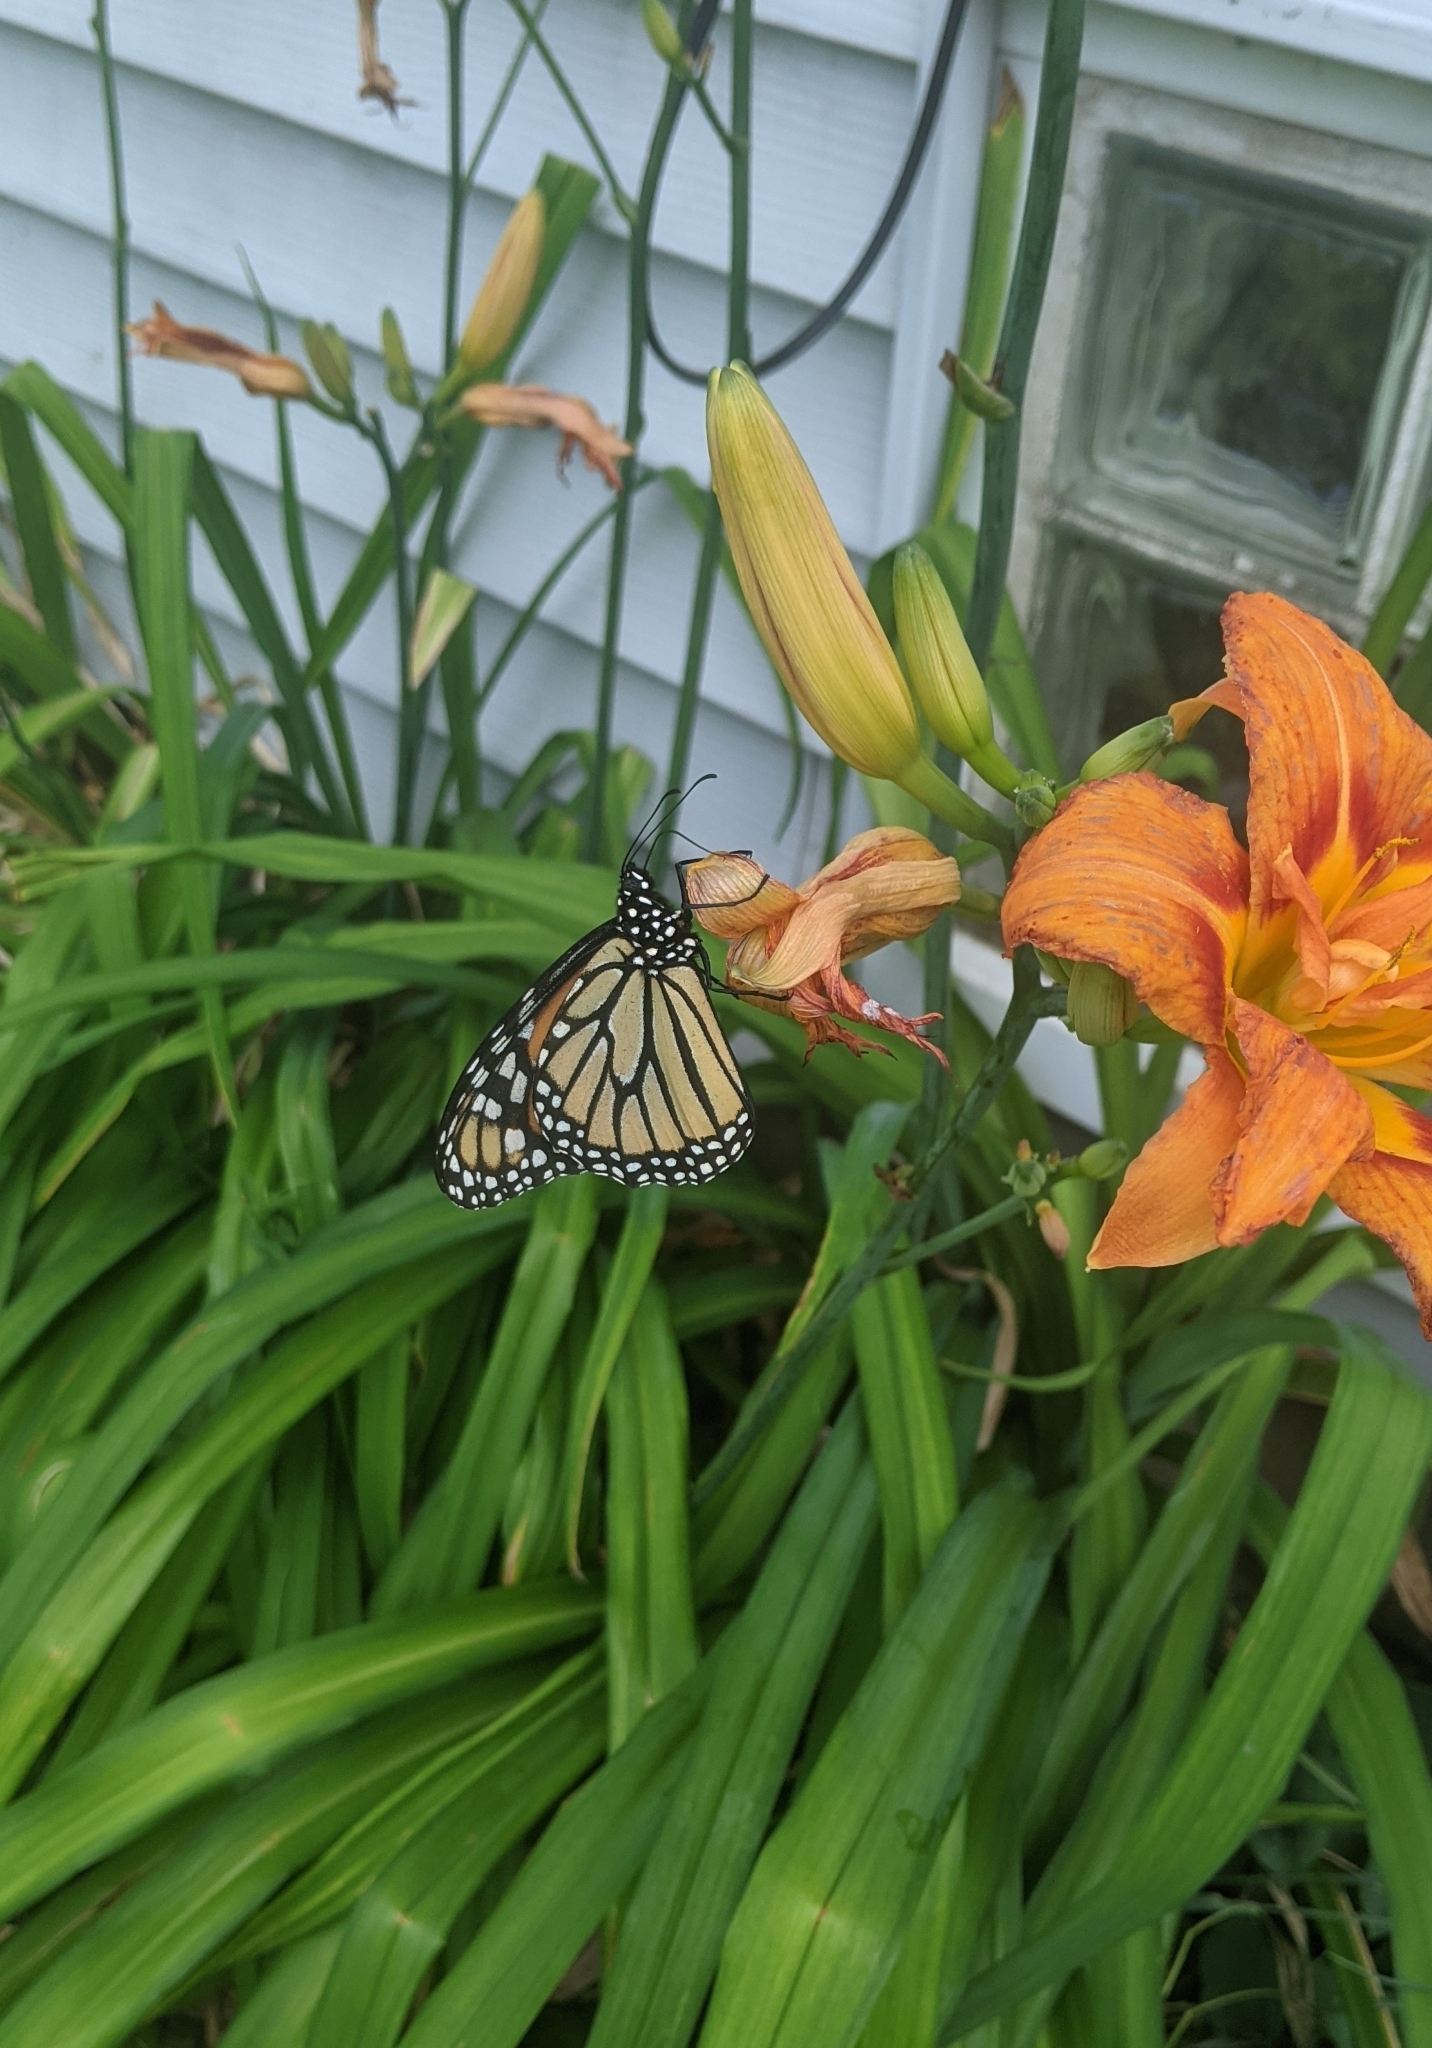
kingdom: Animalia
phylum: Arthropoda
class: Insecta
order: Lepidoptera
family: Nymphalidae
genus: Danaus
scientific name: Danaus plexippus
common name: Monarch
